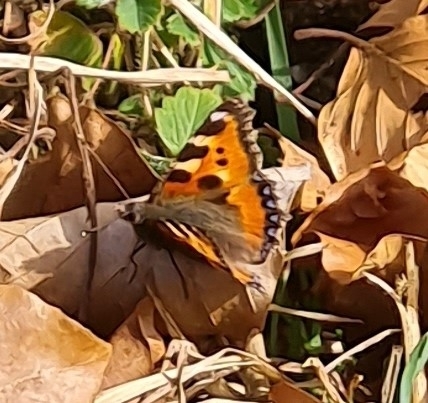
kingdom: Animalia
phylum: Arthropoda
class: Insecta
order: Lepidoptera
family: Nymphalidae
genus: Aglais
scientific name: Aglais urticae
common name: Small tortoiseshell
